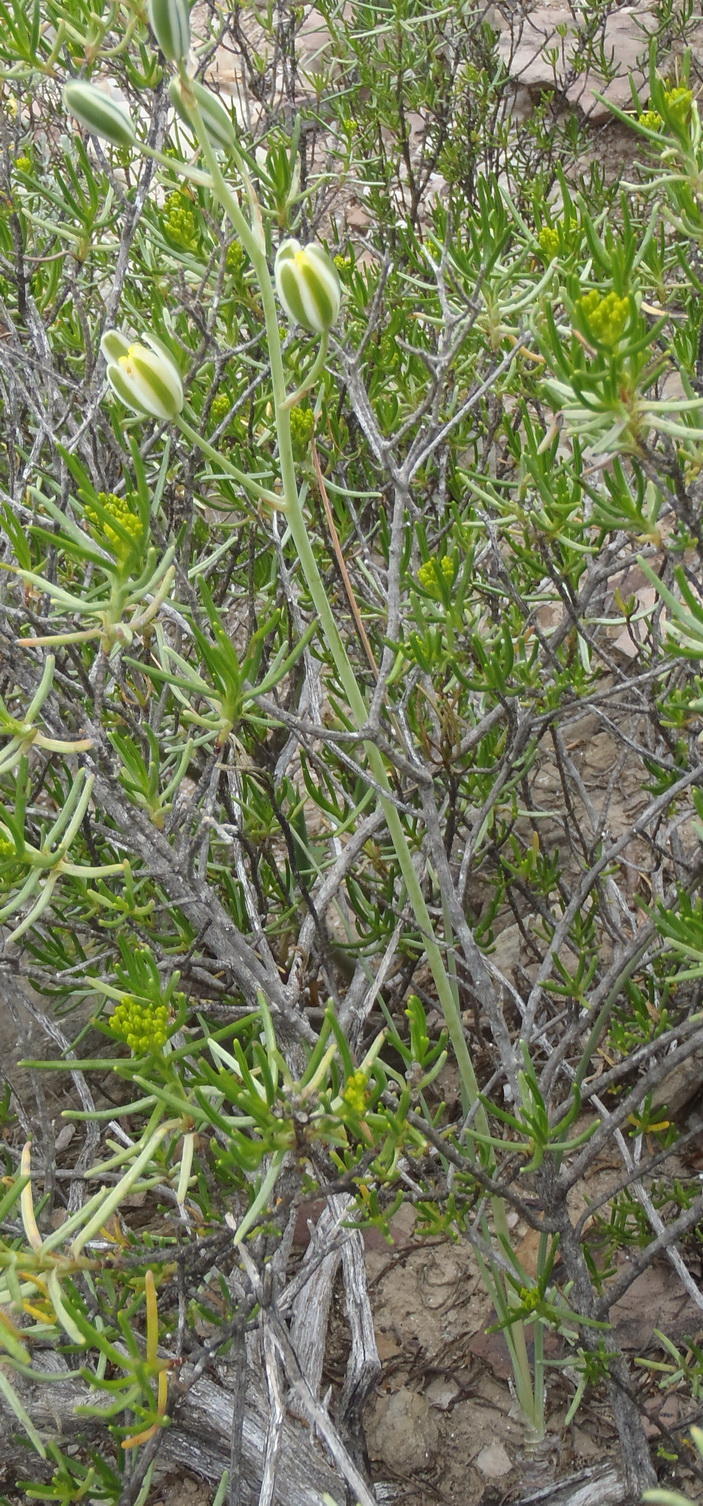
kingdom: Plantae
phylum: Tracheophyta
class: Liliopsida
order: Asparagales
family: Asparagaceae
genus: Albuca
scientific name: Albuca longipes
